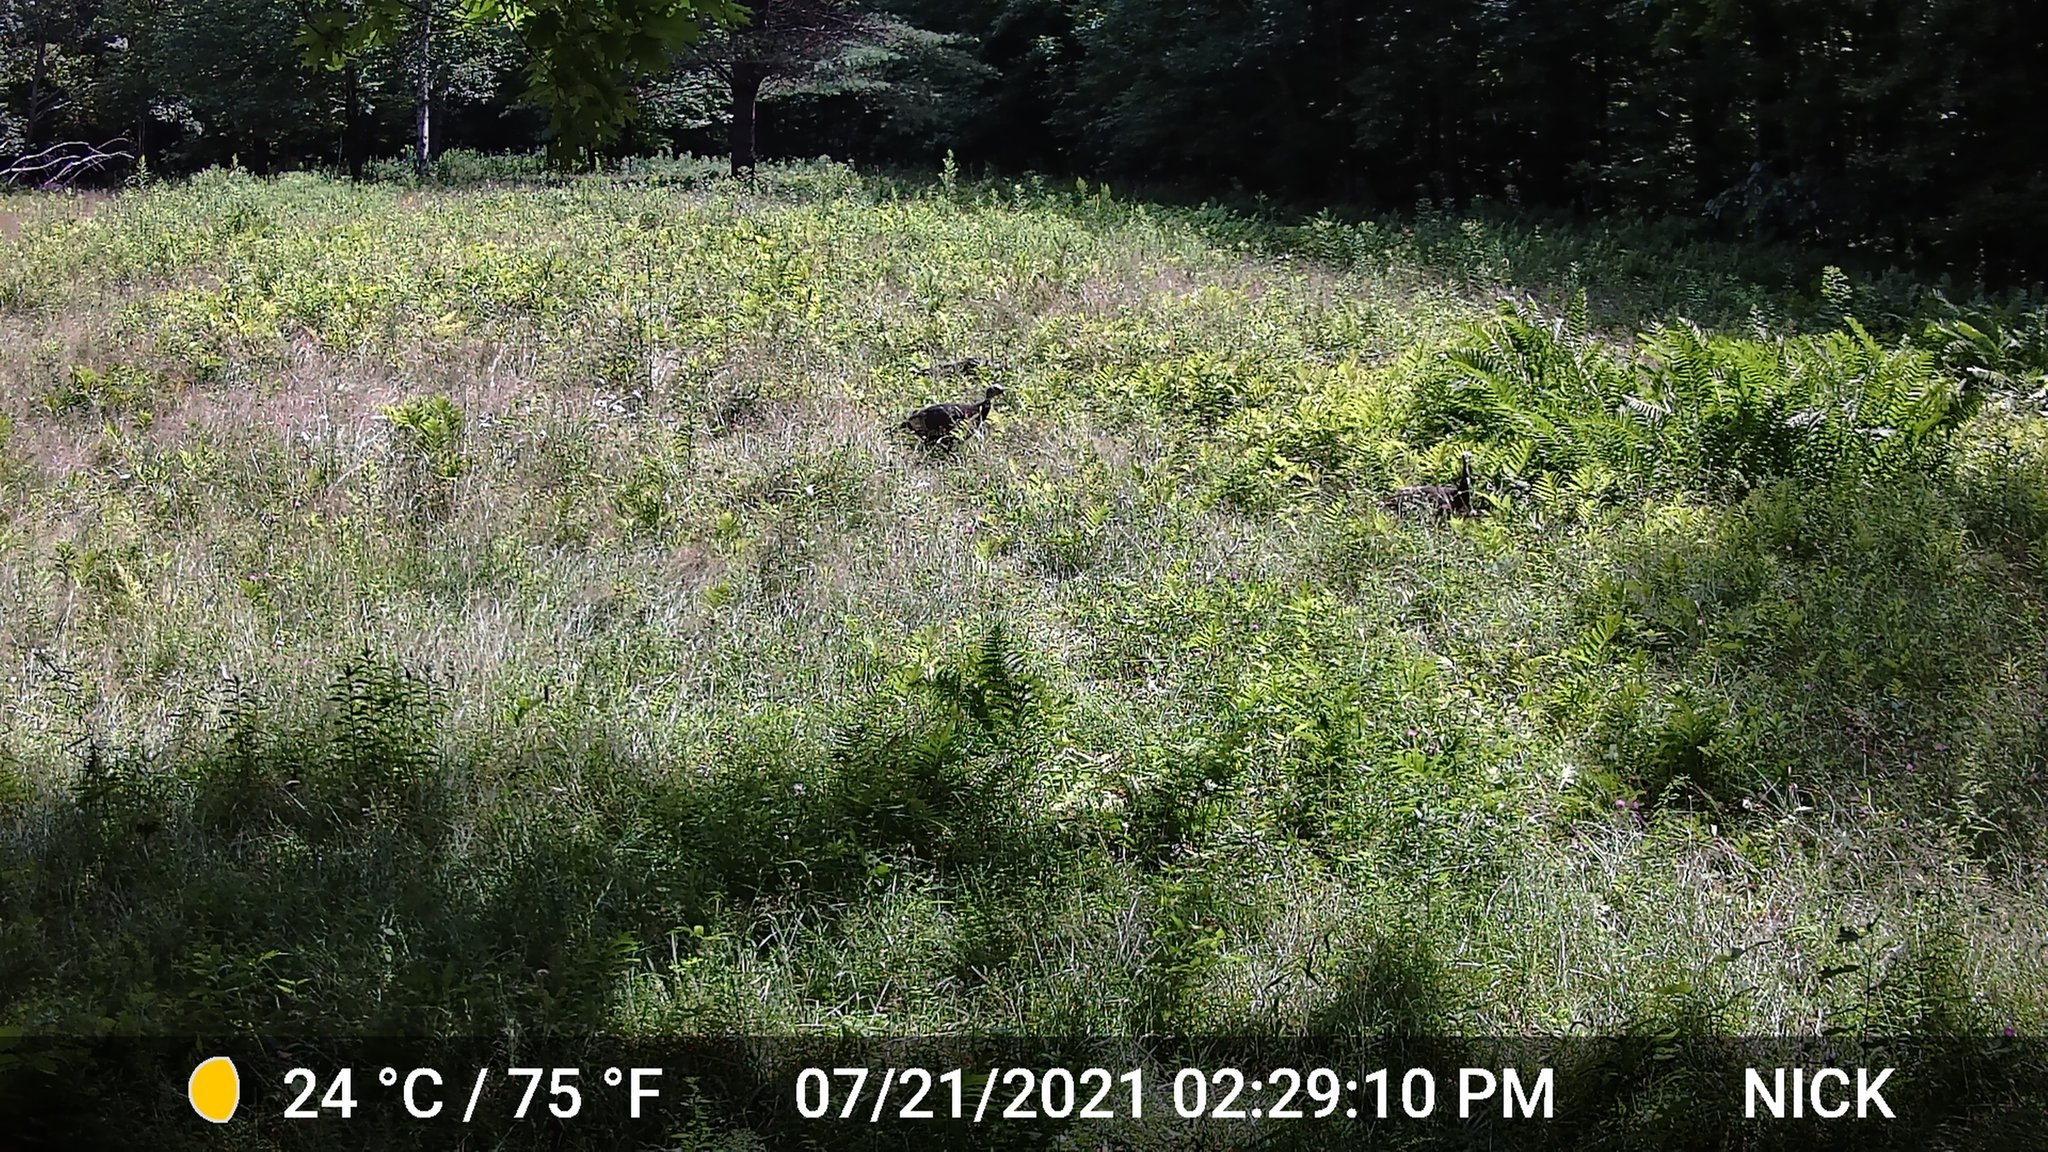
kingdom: Animalia
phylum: Chordata
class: Aves
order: Galliformes
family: Phasianidae
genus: Meleagris
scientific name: Meleagris gallopavo
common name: Wild turkey
